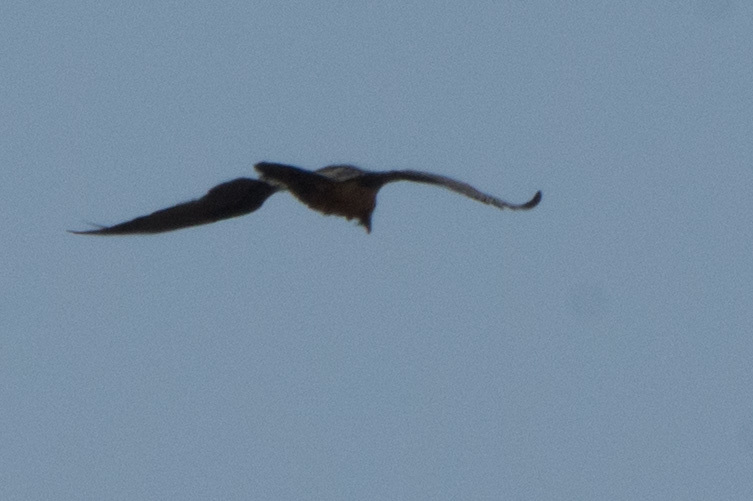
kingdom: Animalia
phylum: Chordata
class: Aves
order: Accipitriformes
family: Accipitridae
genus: Gypaetus
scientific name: Gypaetus barbatus
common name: Bearded vulture
